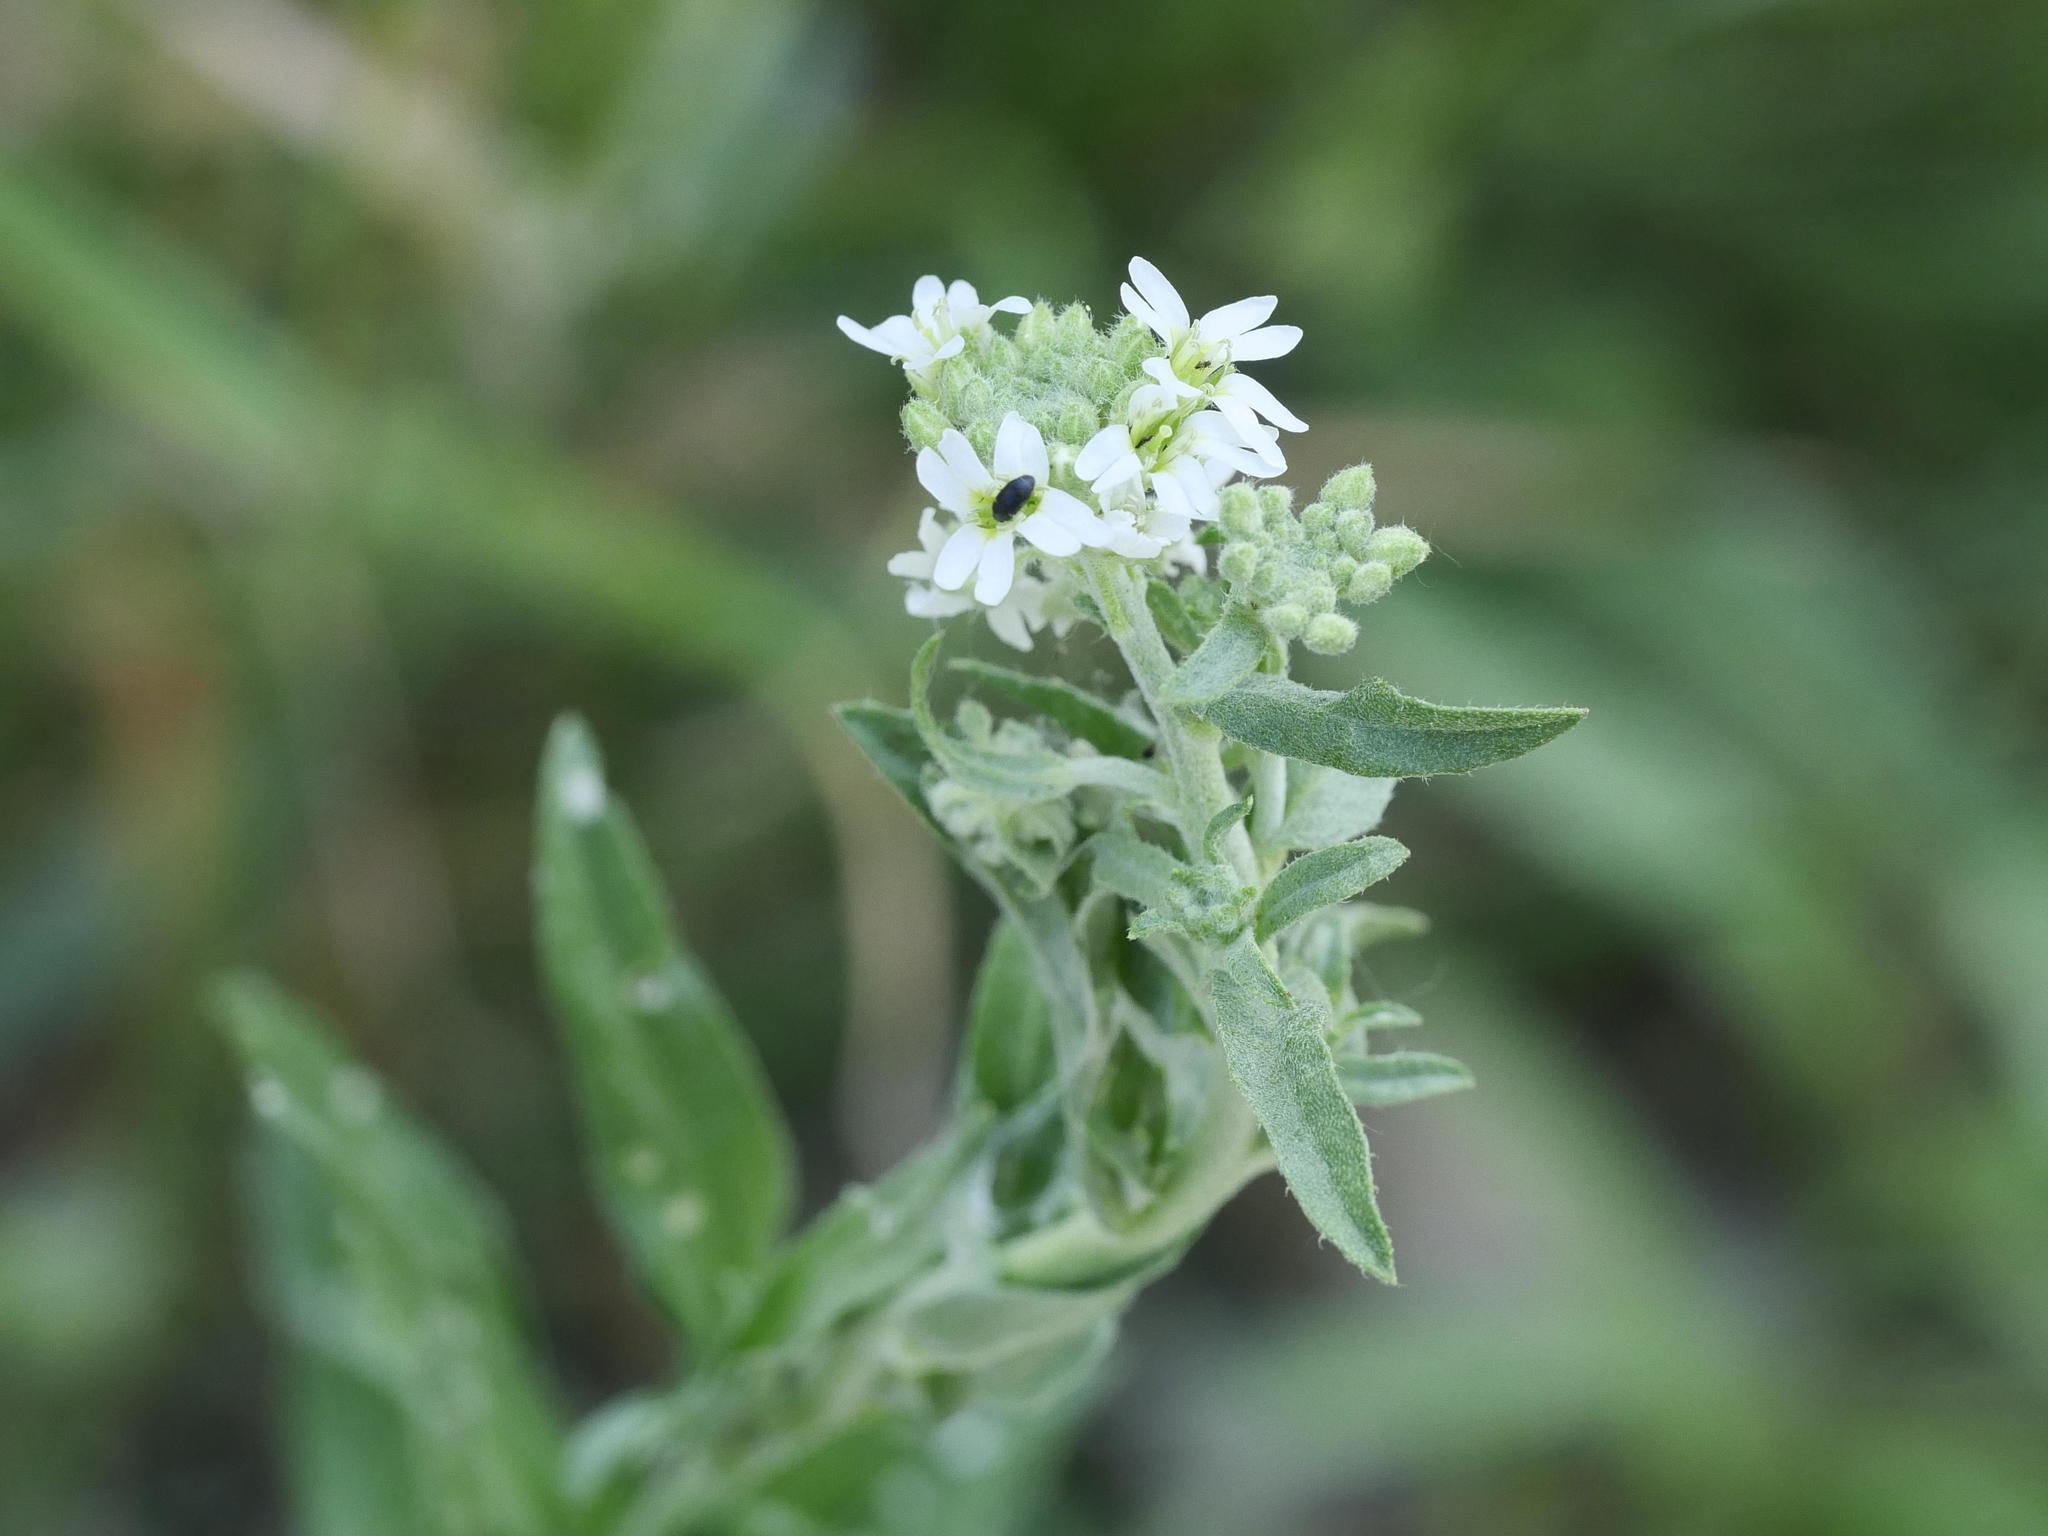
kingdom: Plantae
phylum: Tracheophyta
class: Magnoliopsida
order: Brassicales
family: Brassicaceae
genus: Berteroa
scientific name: Berteroa incana
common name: Hoary alison
